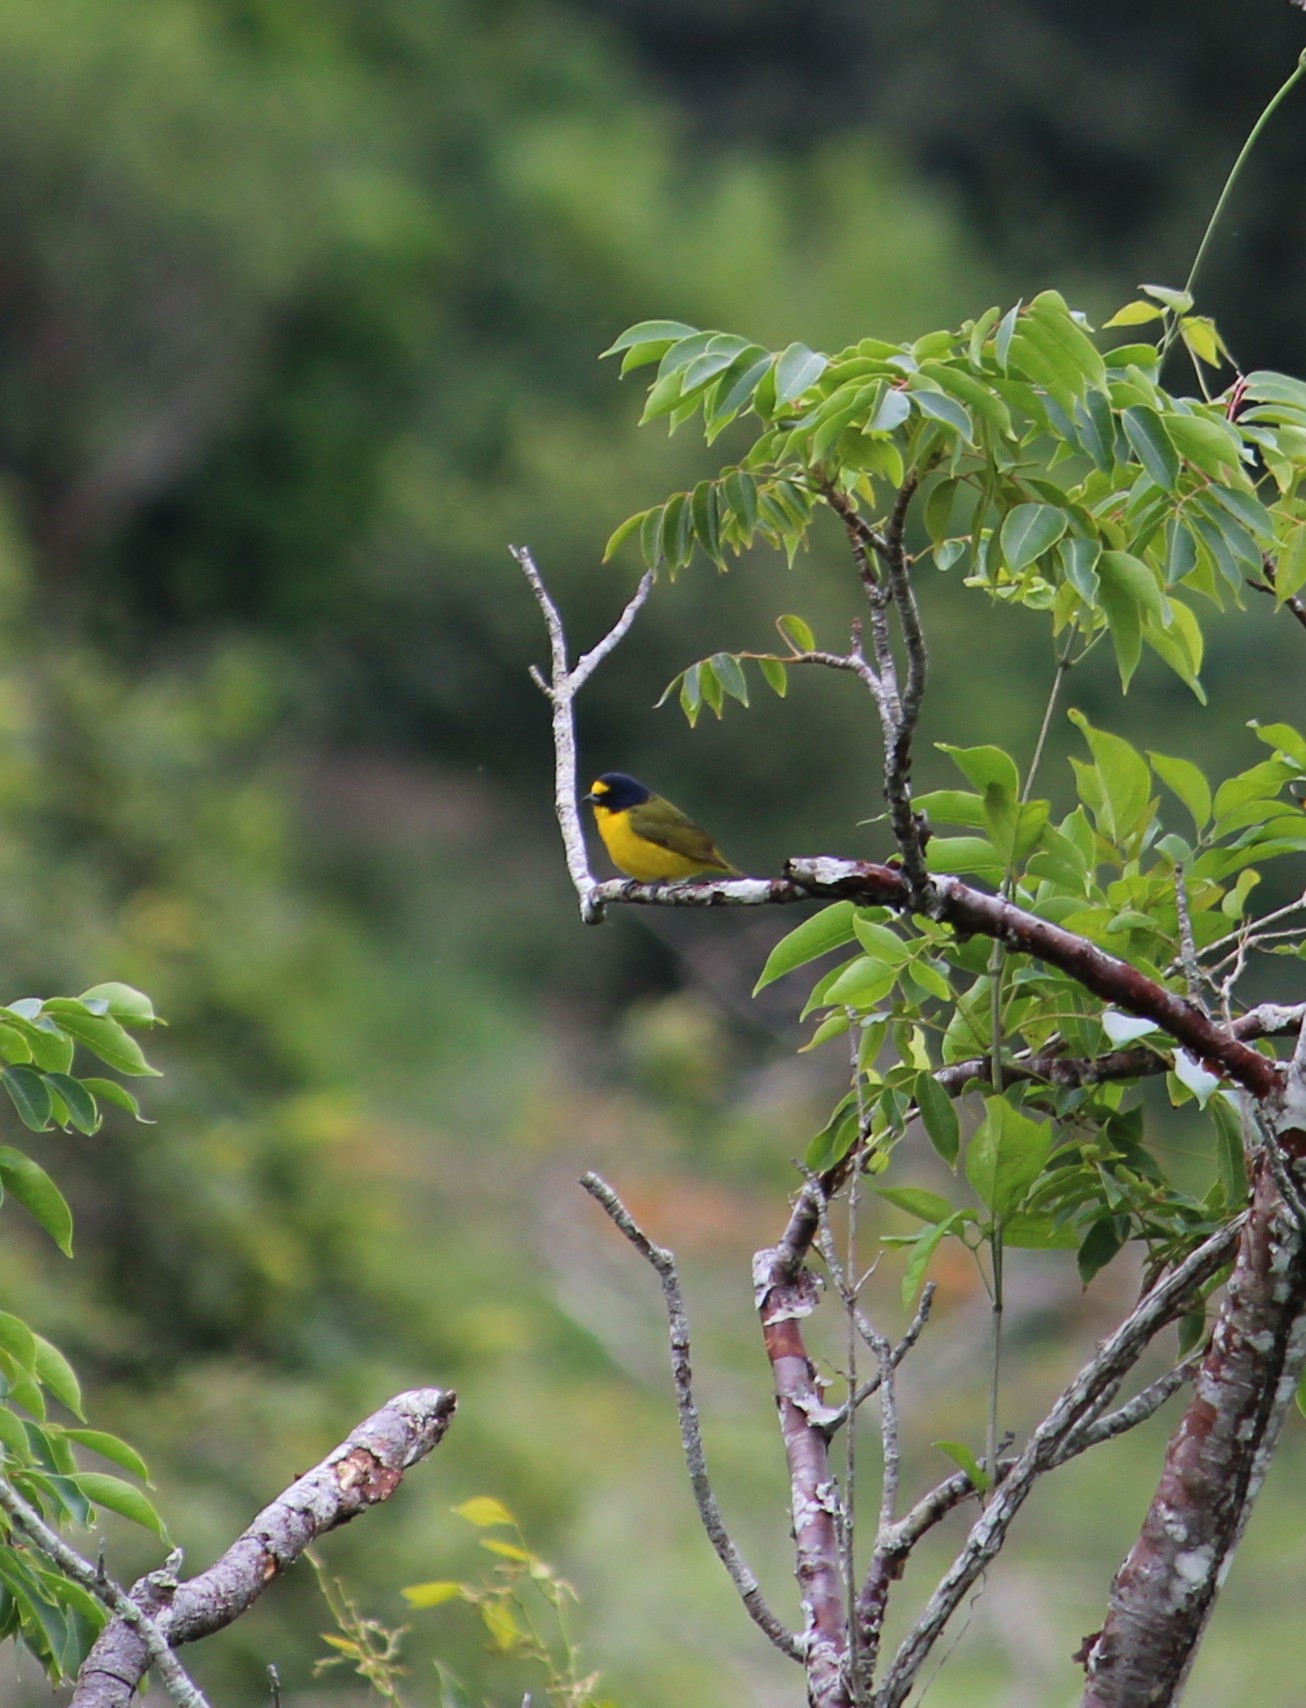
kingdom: Animalia
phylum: Chordata
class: Aves
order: Passeriformes
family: Fringillidae
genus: Euphonia
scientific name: Euphonia hirundinacea
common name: Yellow-throated euphonia
